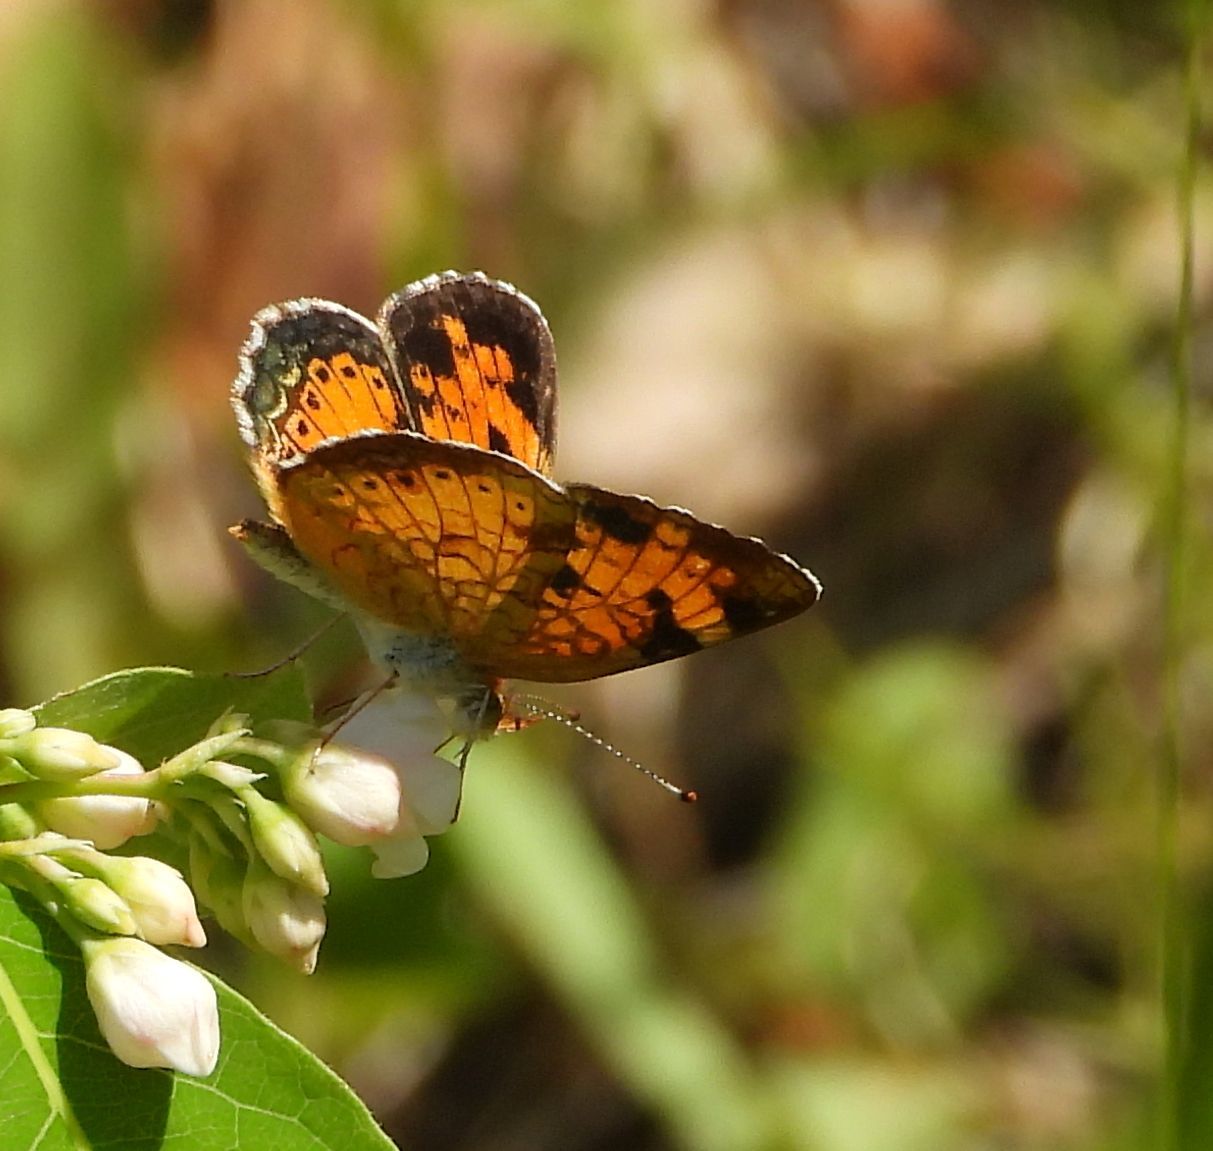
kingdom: Animalia
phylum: Arthropoda
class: Insecta
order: Lepidoptera
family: Nymphalidae
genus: Phyciodes
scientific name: Phyciodes tharos
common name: Pearl crescent
